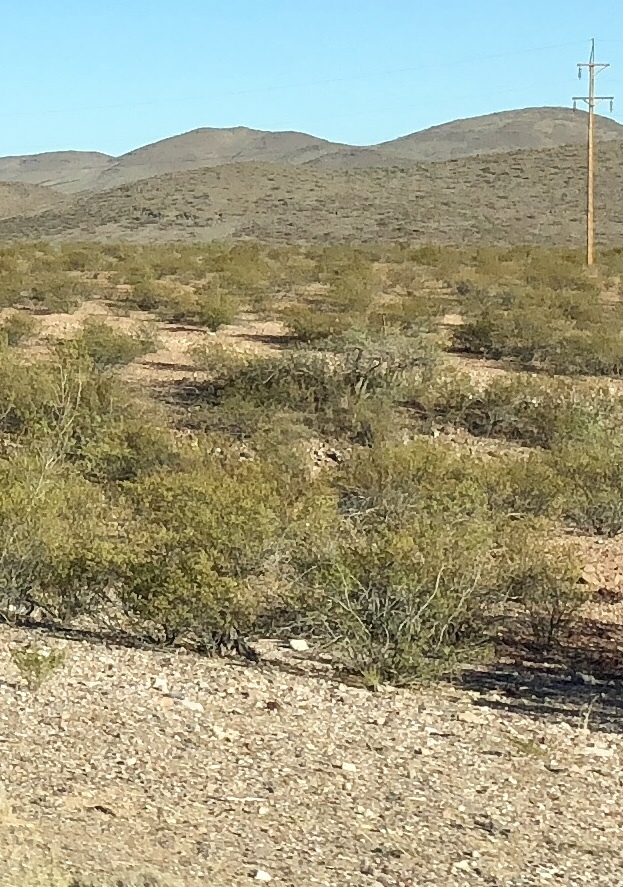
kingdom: Plantae
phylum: Tracheophyta
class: Magnoliopsida
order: Zygophyllales
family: Zygophyllaceae
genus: Larrea
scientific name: Larrea tridentata
